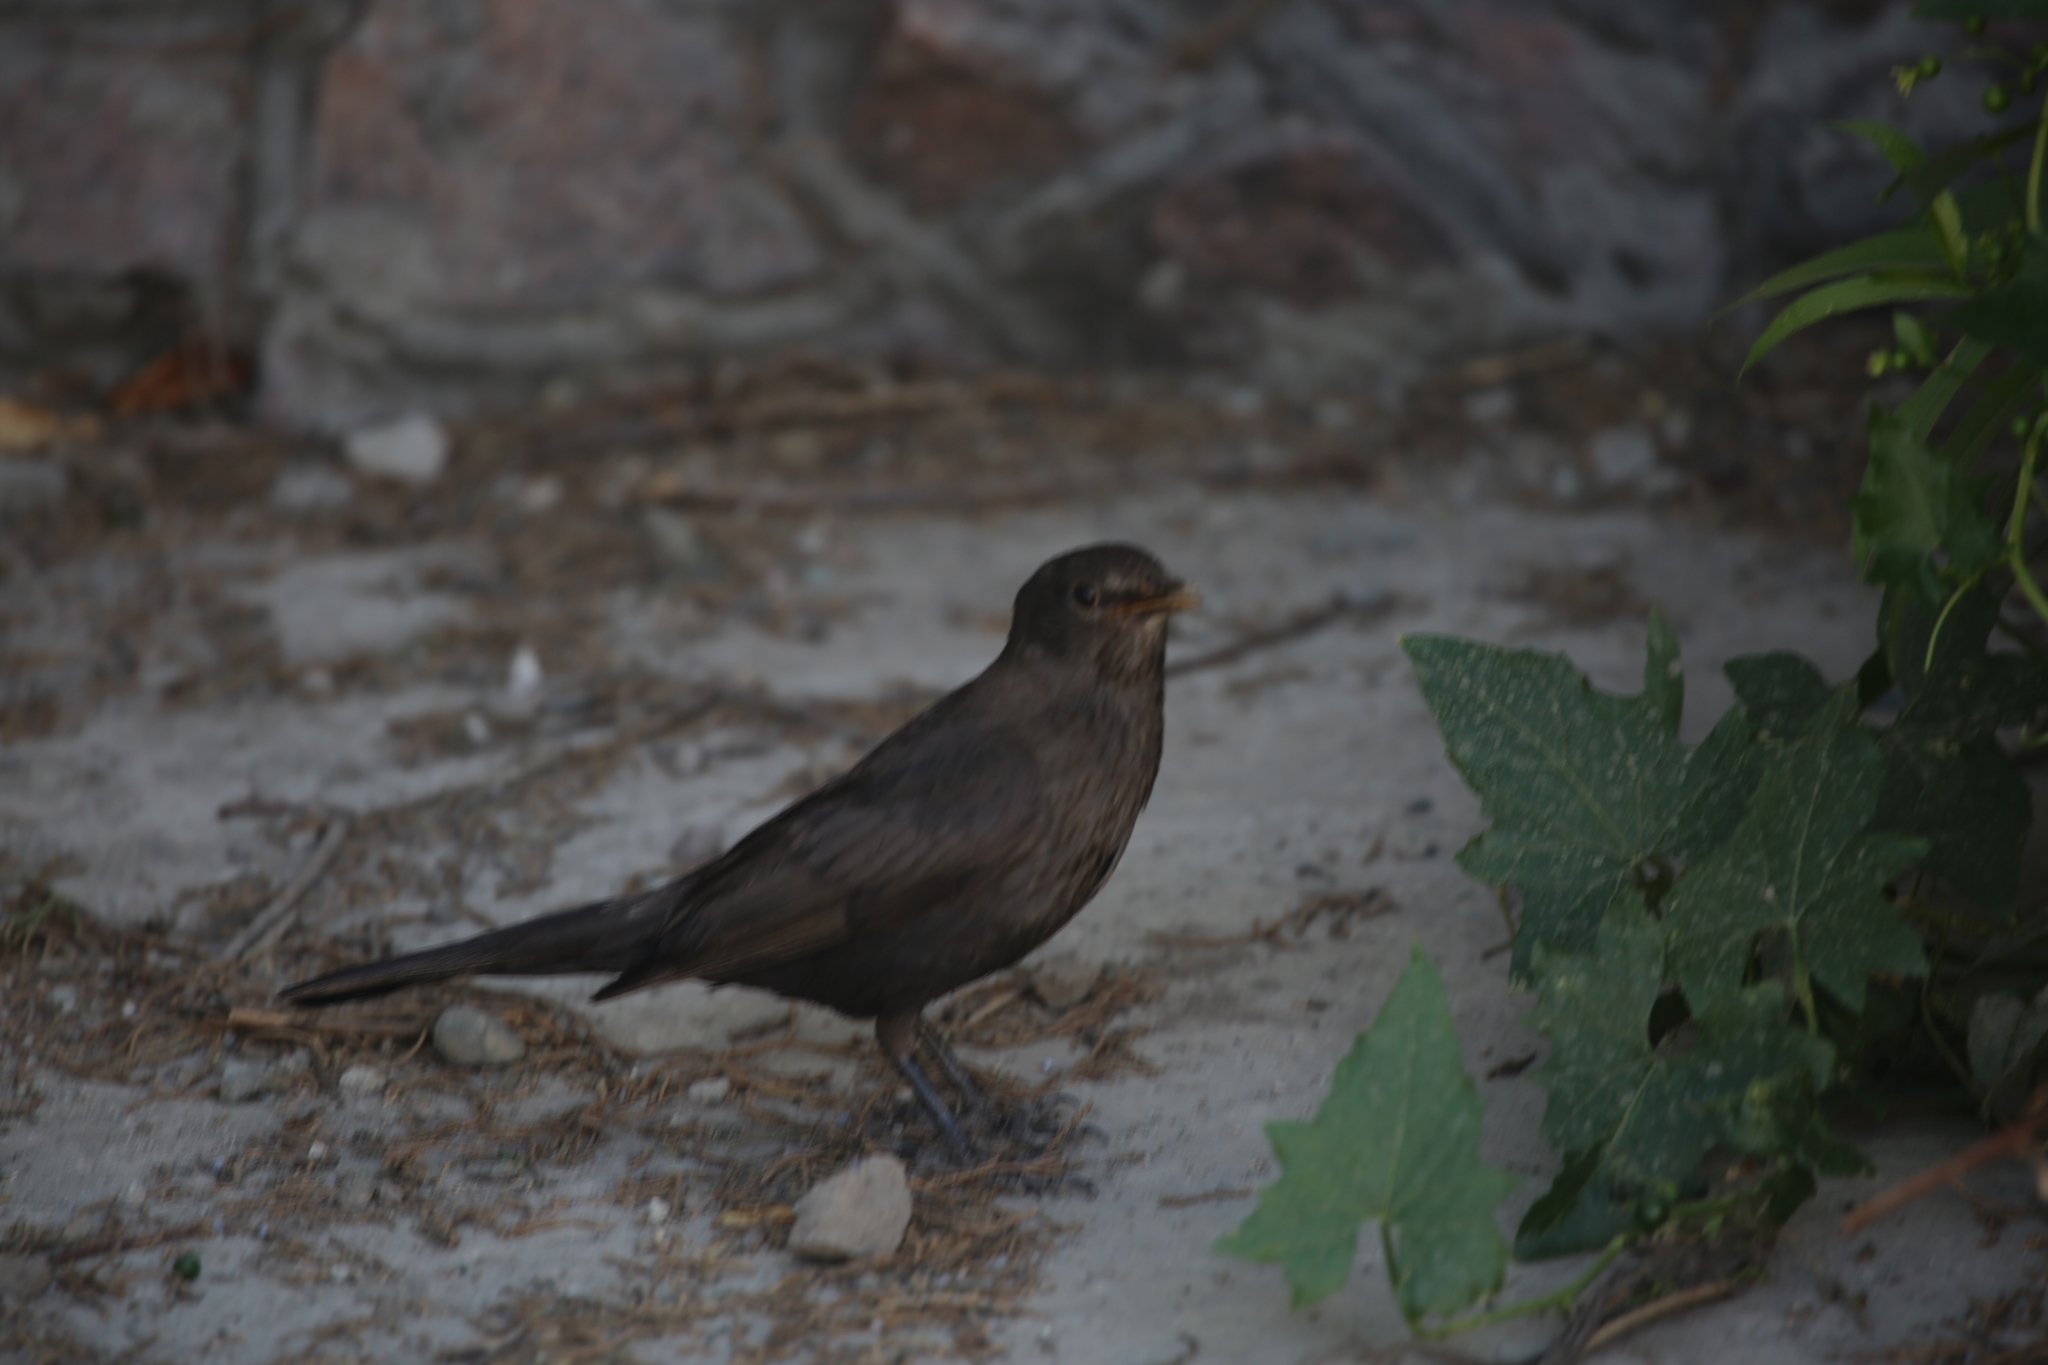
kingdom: Animalia
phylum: Chordata
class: Aves
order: Passeriformes
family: Turdidae
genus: Turdus
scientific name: Turdus merula
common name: Common blackbird
